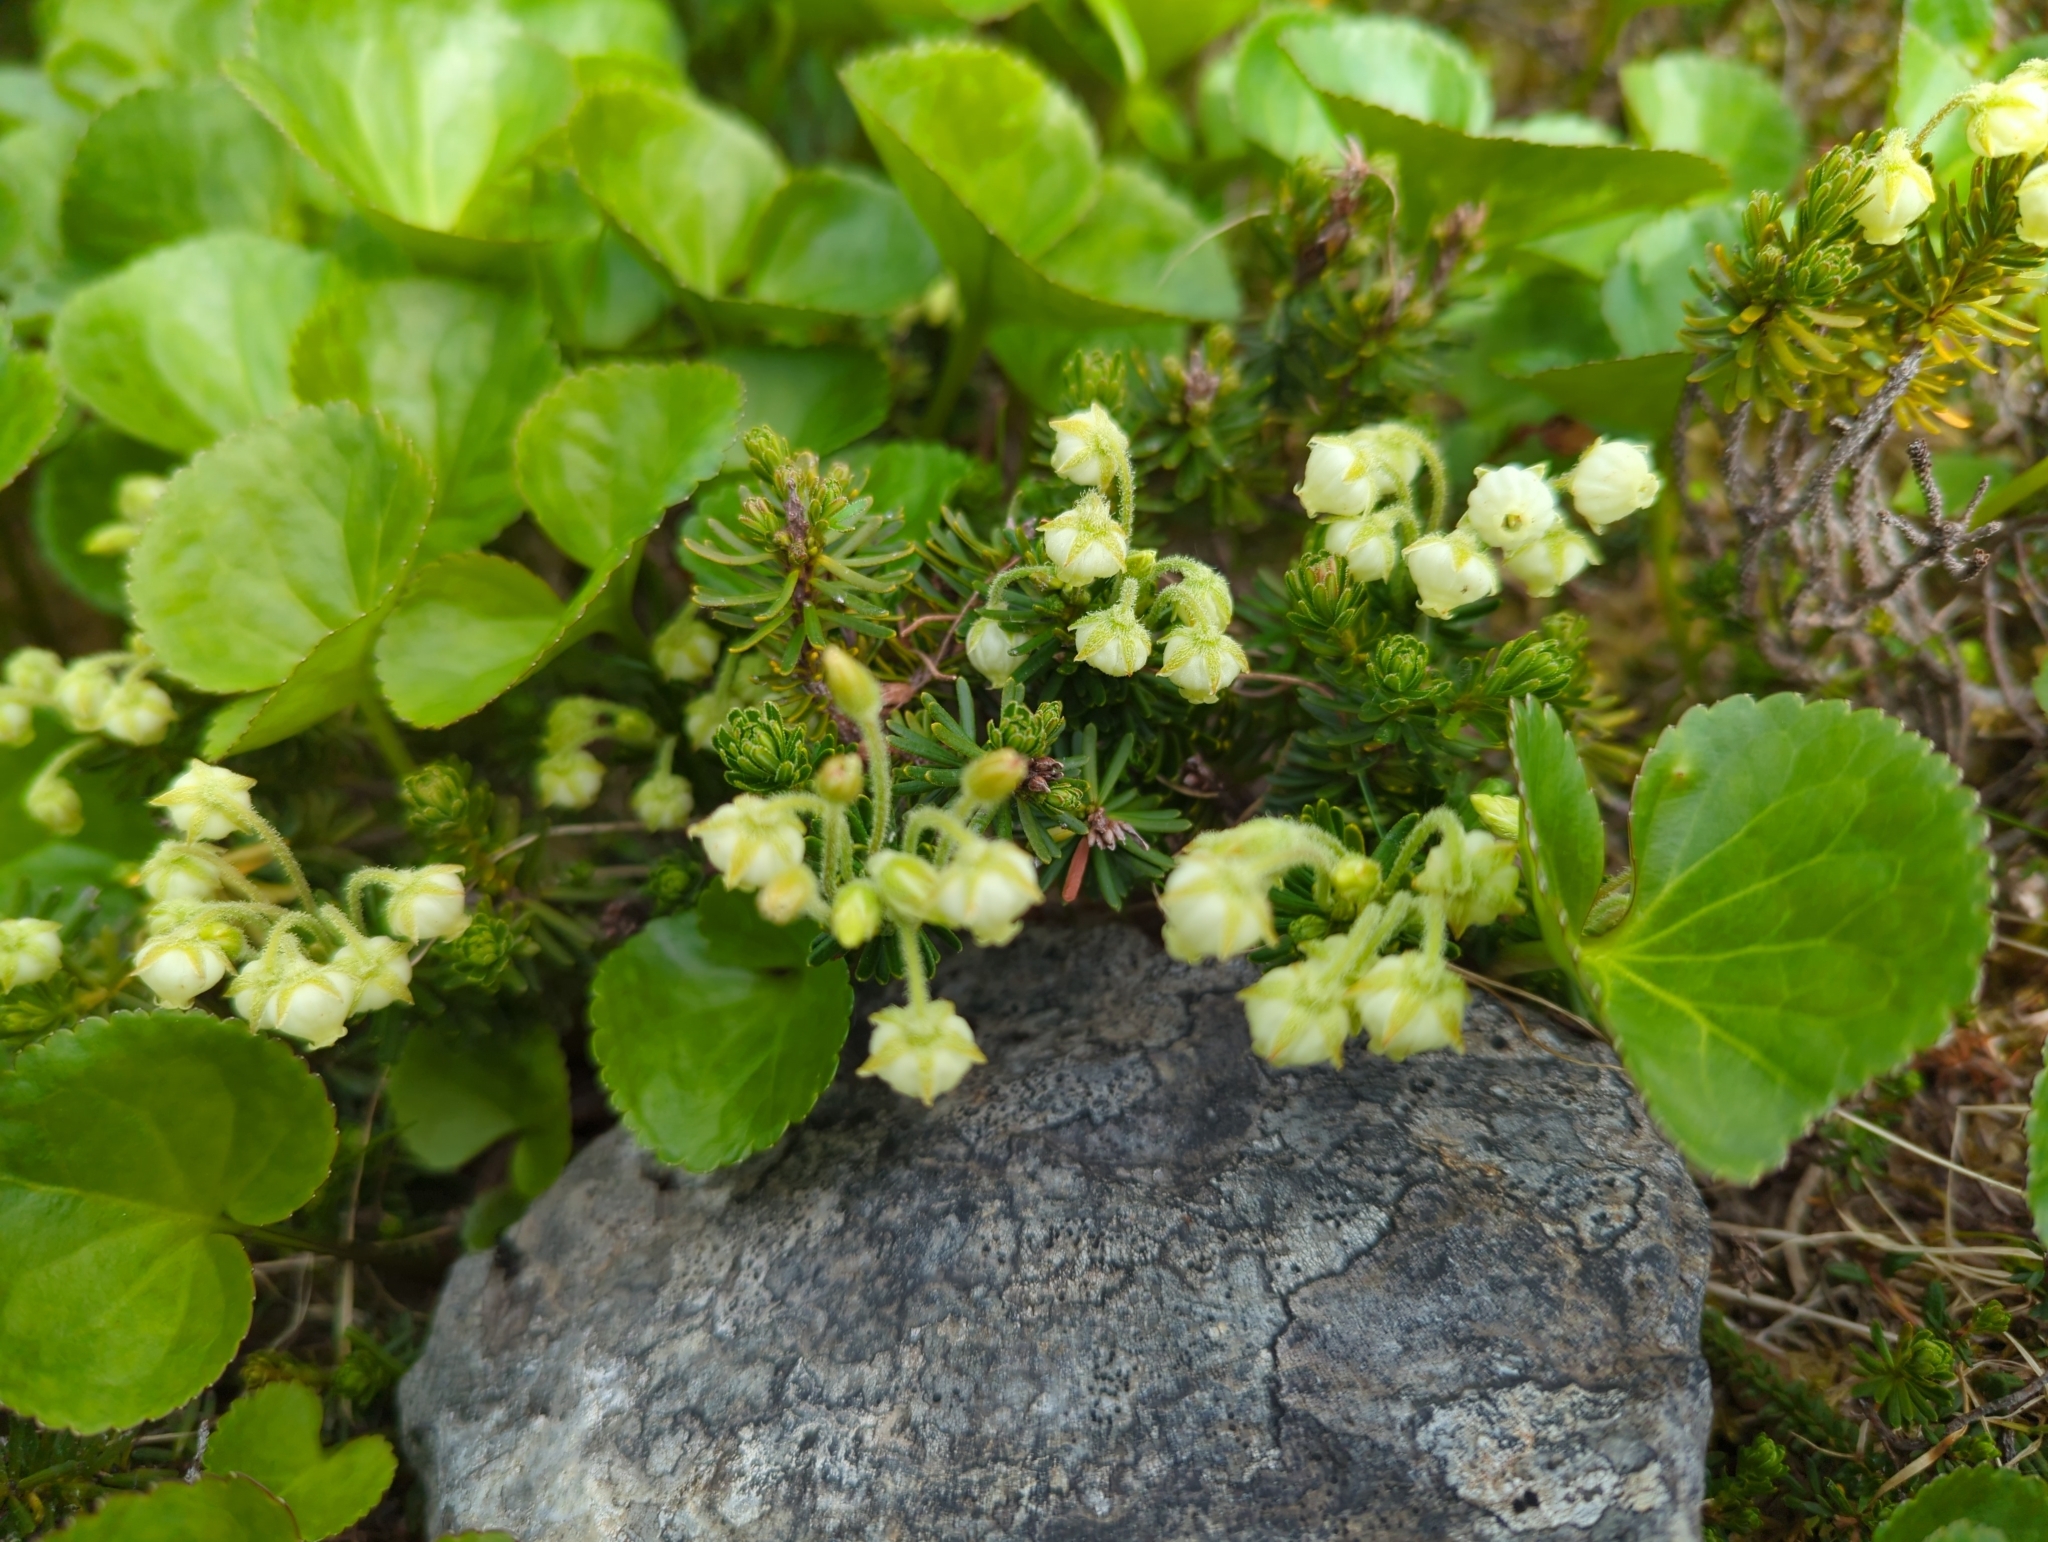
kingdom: Plantae
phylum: Tracheophyta
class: Magnoliopsida
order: Ericales
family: Ericaceae
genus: Phyllodoce
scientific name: Phyllodoce glanduliflora
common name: Cream mountain heather
